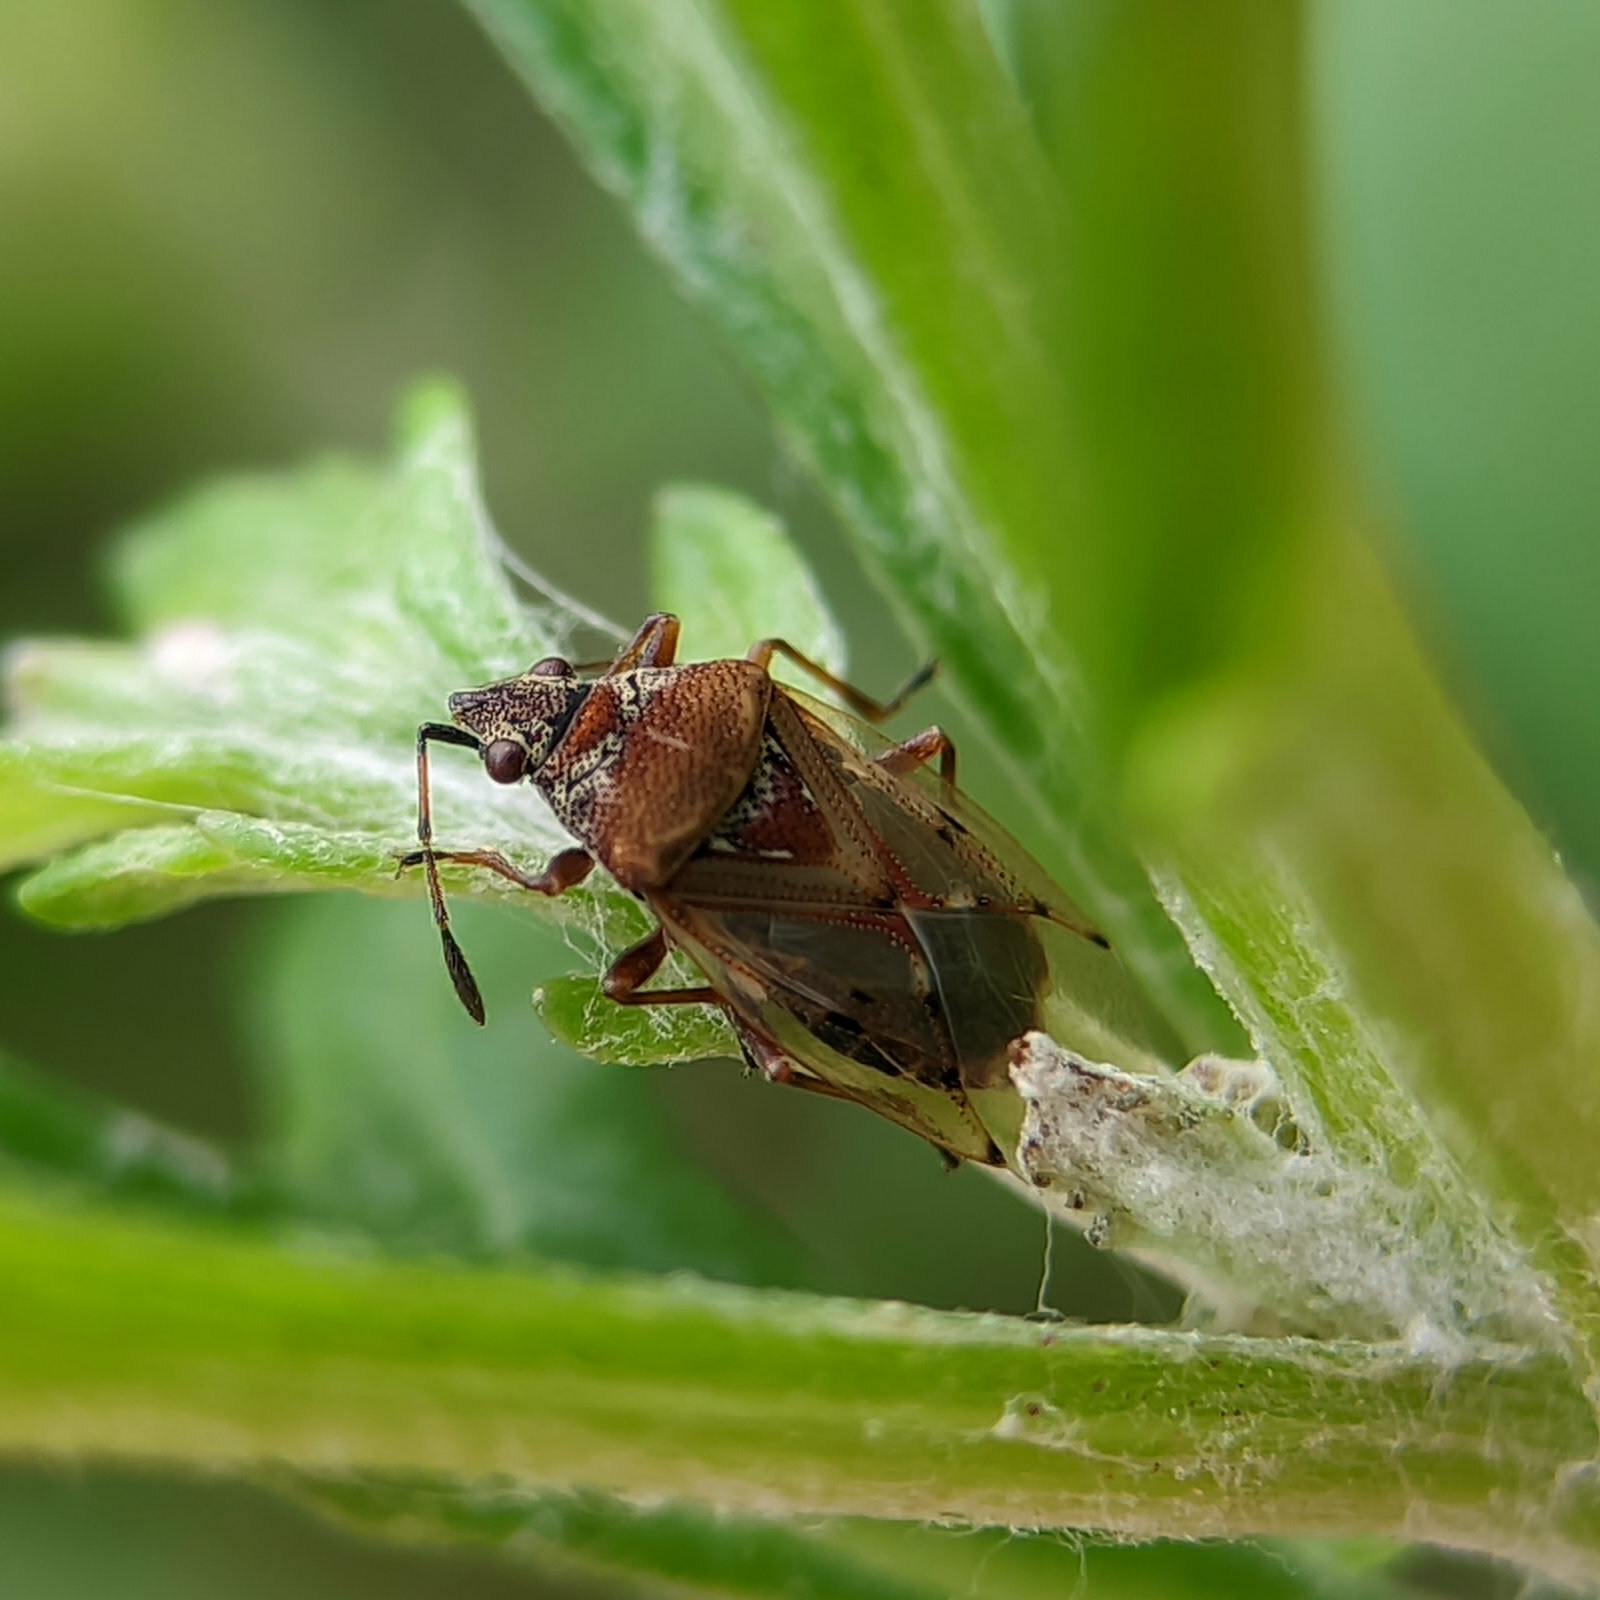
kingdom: Animalia
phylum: Arthropoda
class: Insecta
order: Hemiptera
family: Lygaeidae
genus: Kleidocerys
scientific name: Kleidocerys resedae
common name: Birch catkin bug
